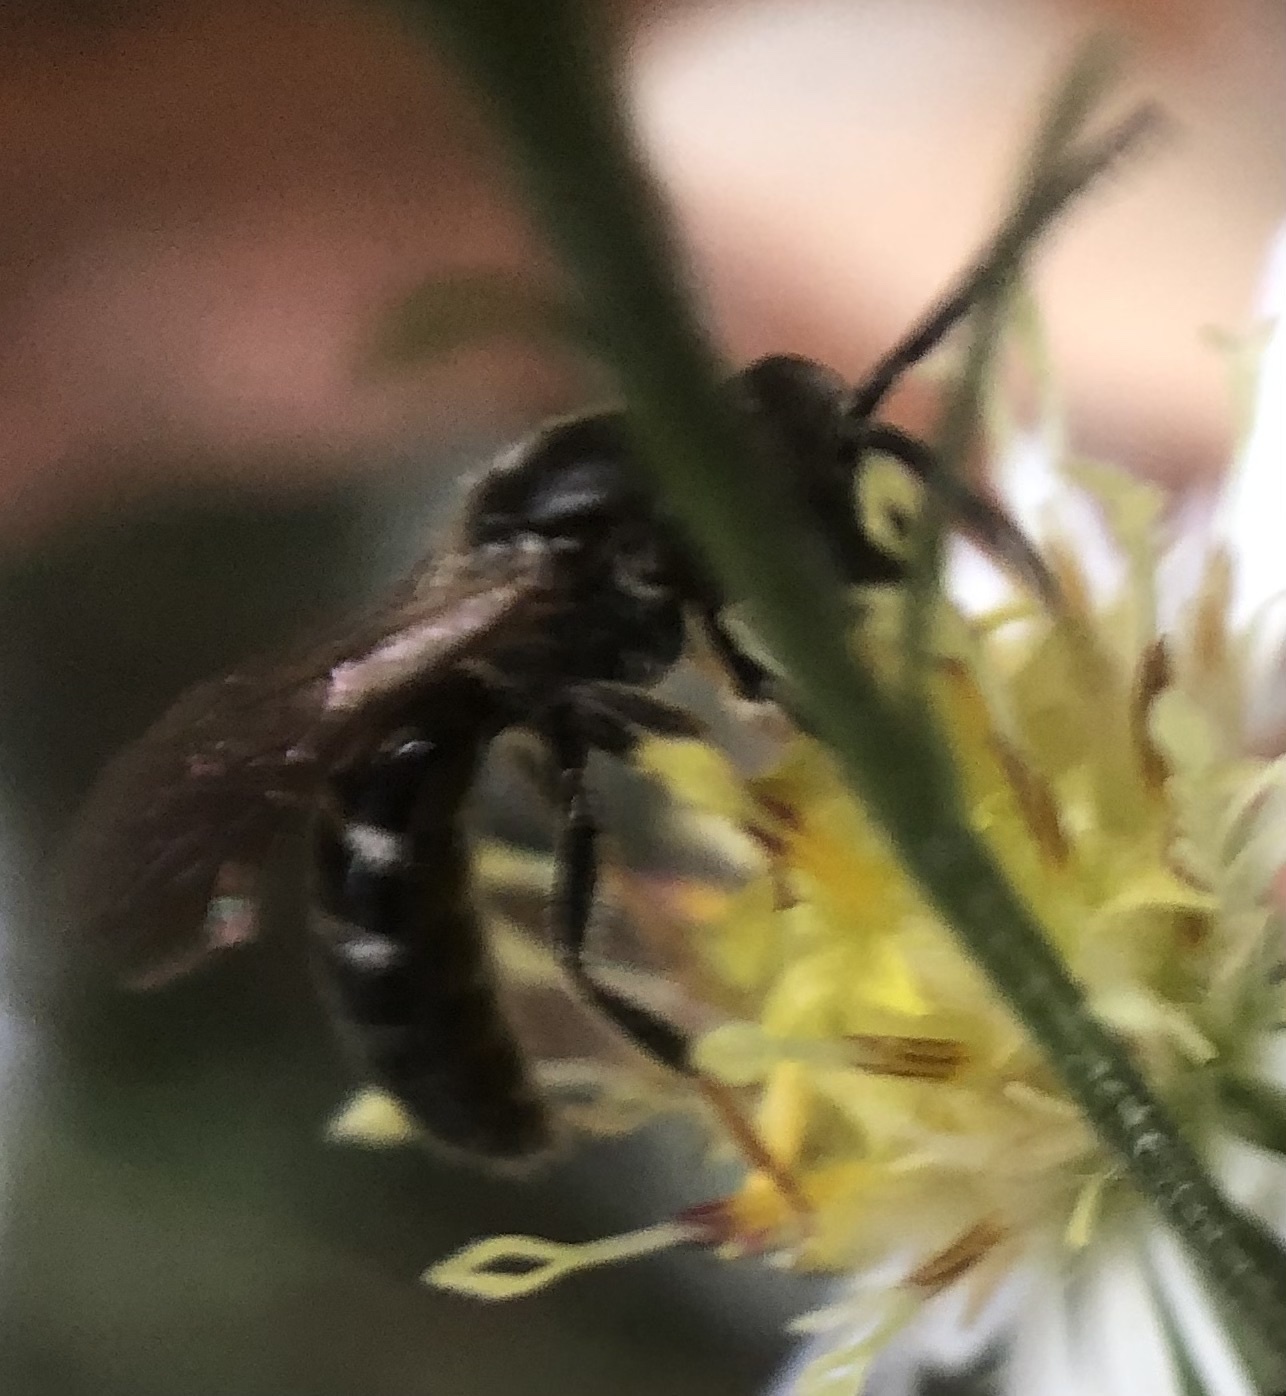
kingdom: Animalia
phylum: Arthropoda
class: Insecta
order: Hymenoptera
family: Halictidae
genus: Lasioglossum
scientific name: Lasioglossum fuscipenne
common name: Brown-winged sweat bee
